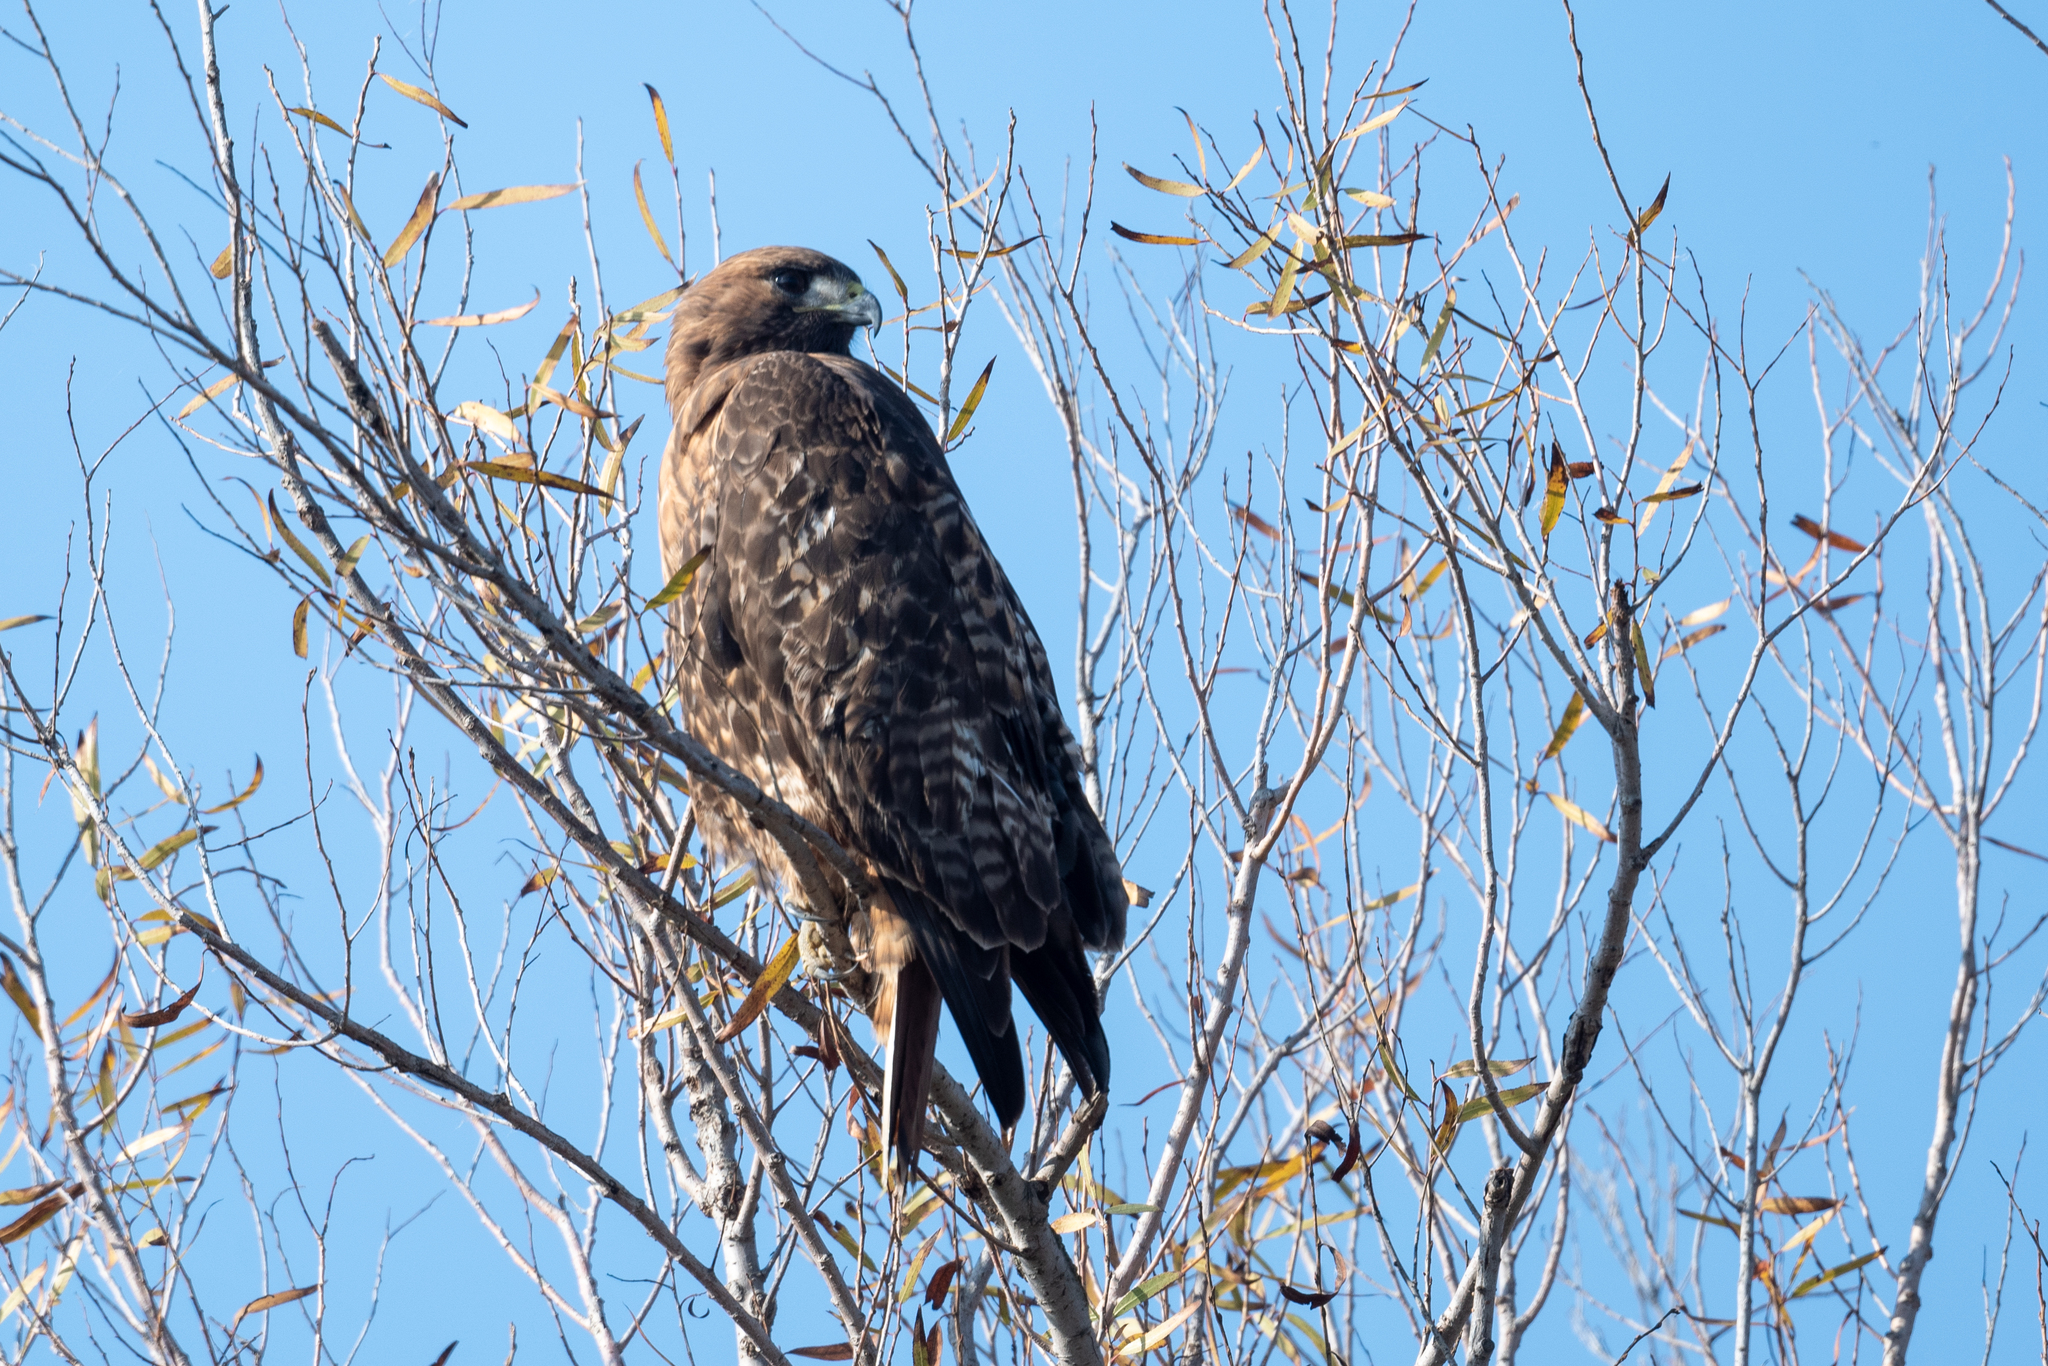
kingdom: Animalia
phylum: Chordata
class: Aves
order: Accipitriformes
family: Accipitridae
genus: Buteo
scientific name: Buteo jamaicensis
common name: Red-tailed hawk
